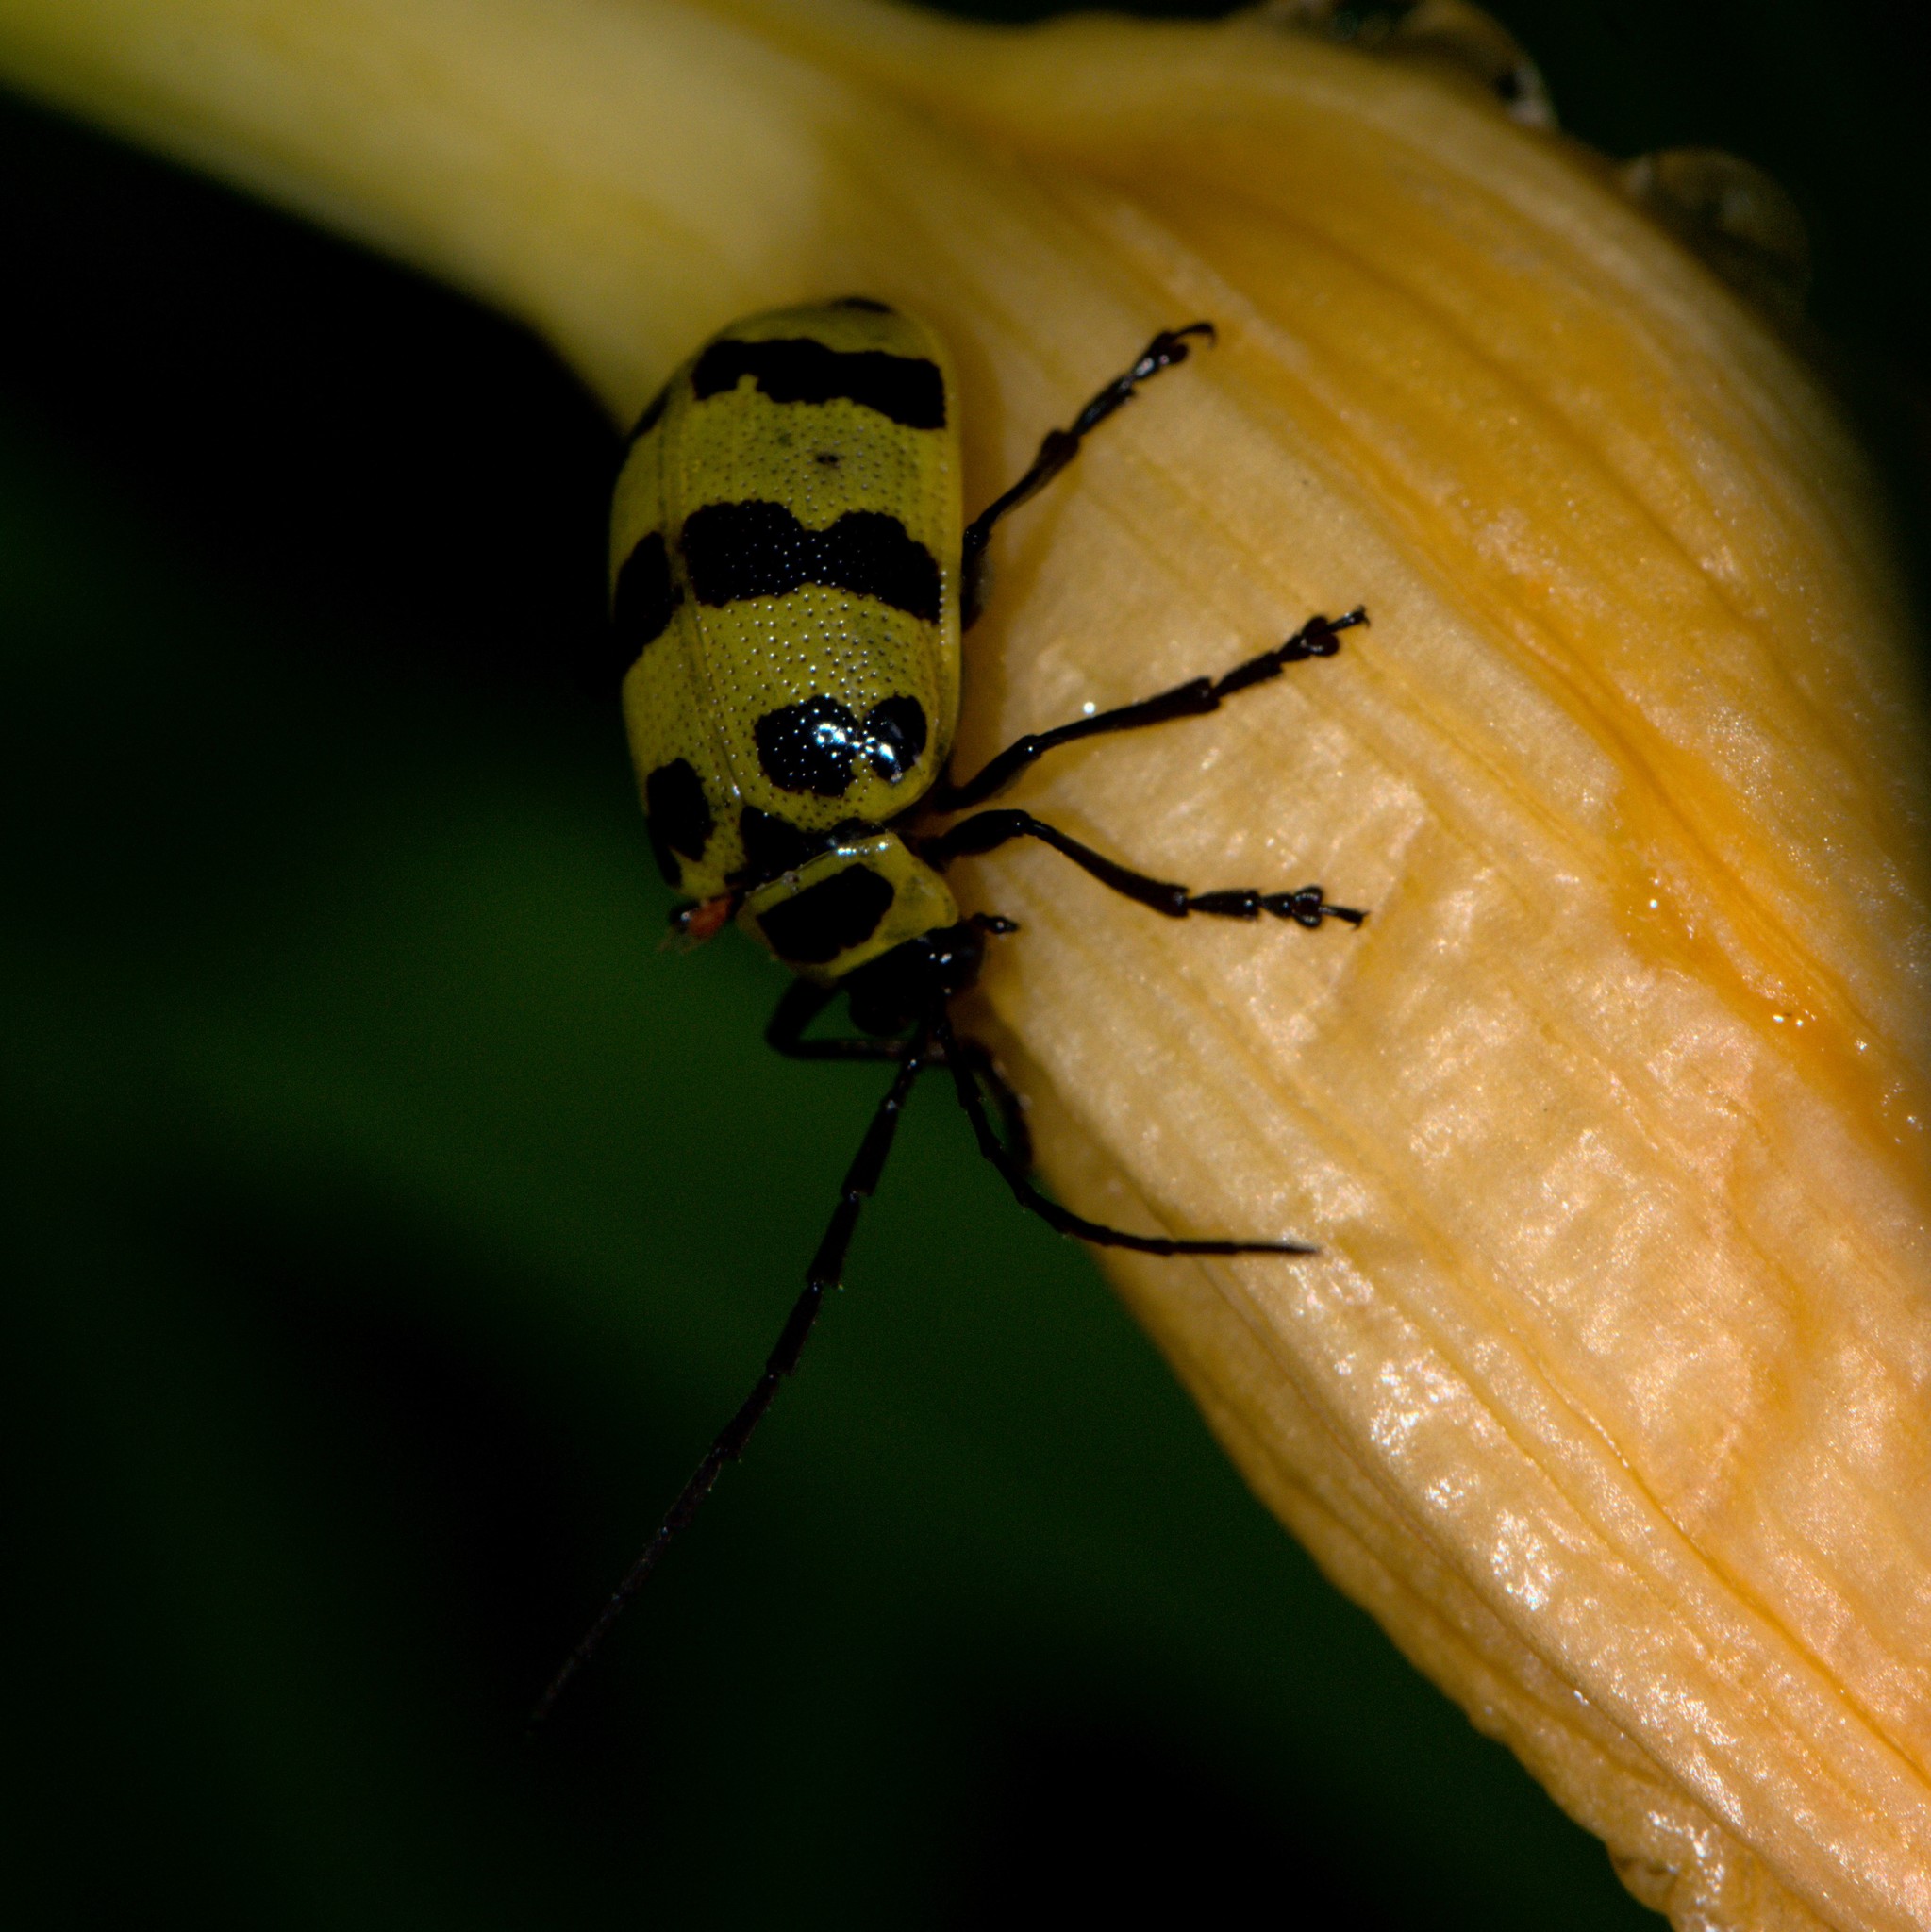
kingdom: Animalia
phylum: Arthropoda
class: Insecta
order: Coleoptera
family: Chrysomelidae
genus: Meristata
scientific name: Meristata quadrifasciata
